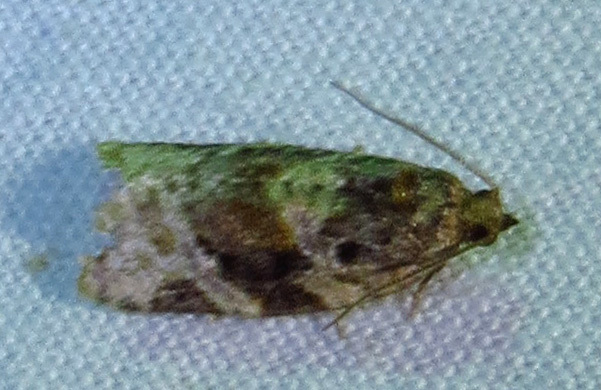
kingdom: Animalia
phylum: Arthropoda
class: Insecta
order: Lepidoptera
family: Tortricidae
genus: Argyrotaenia
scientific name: Argyrotaenia velutinana
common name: Red-banded leafroller moth
